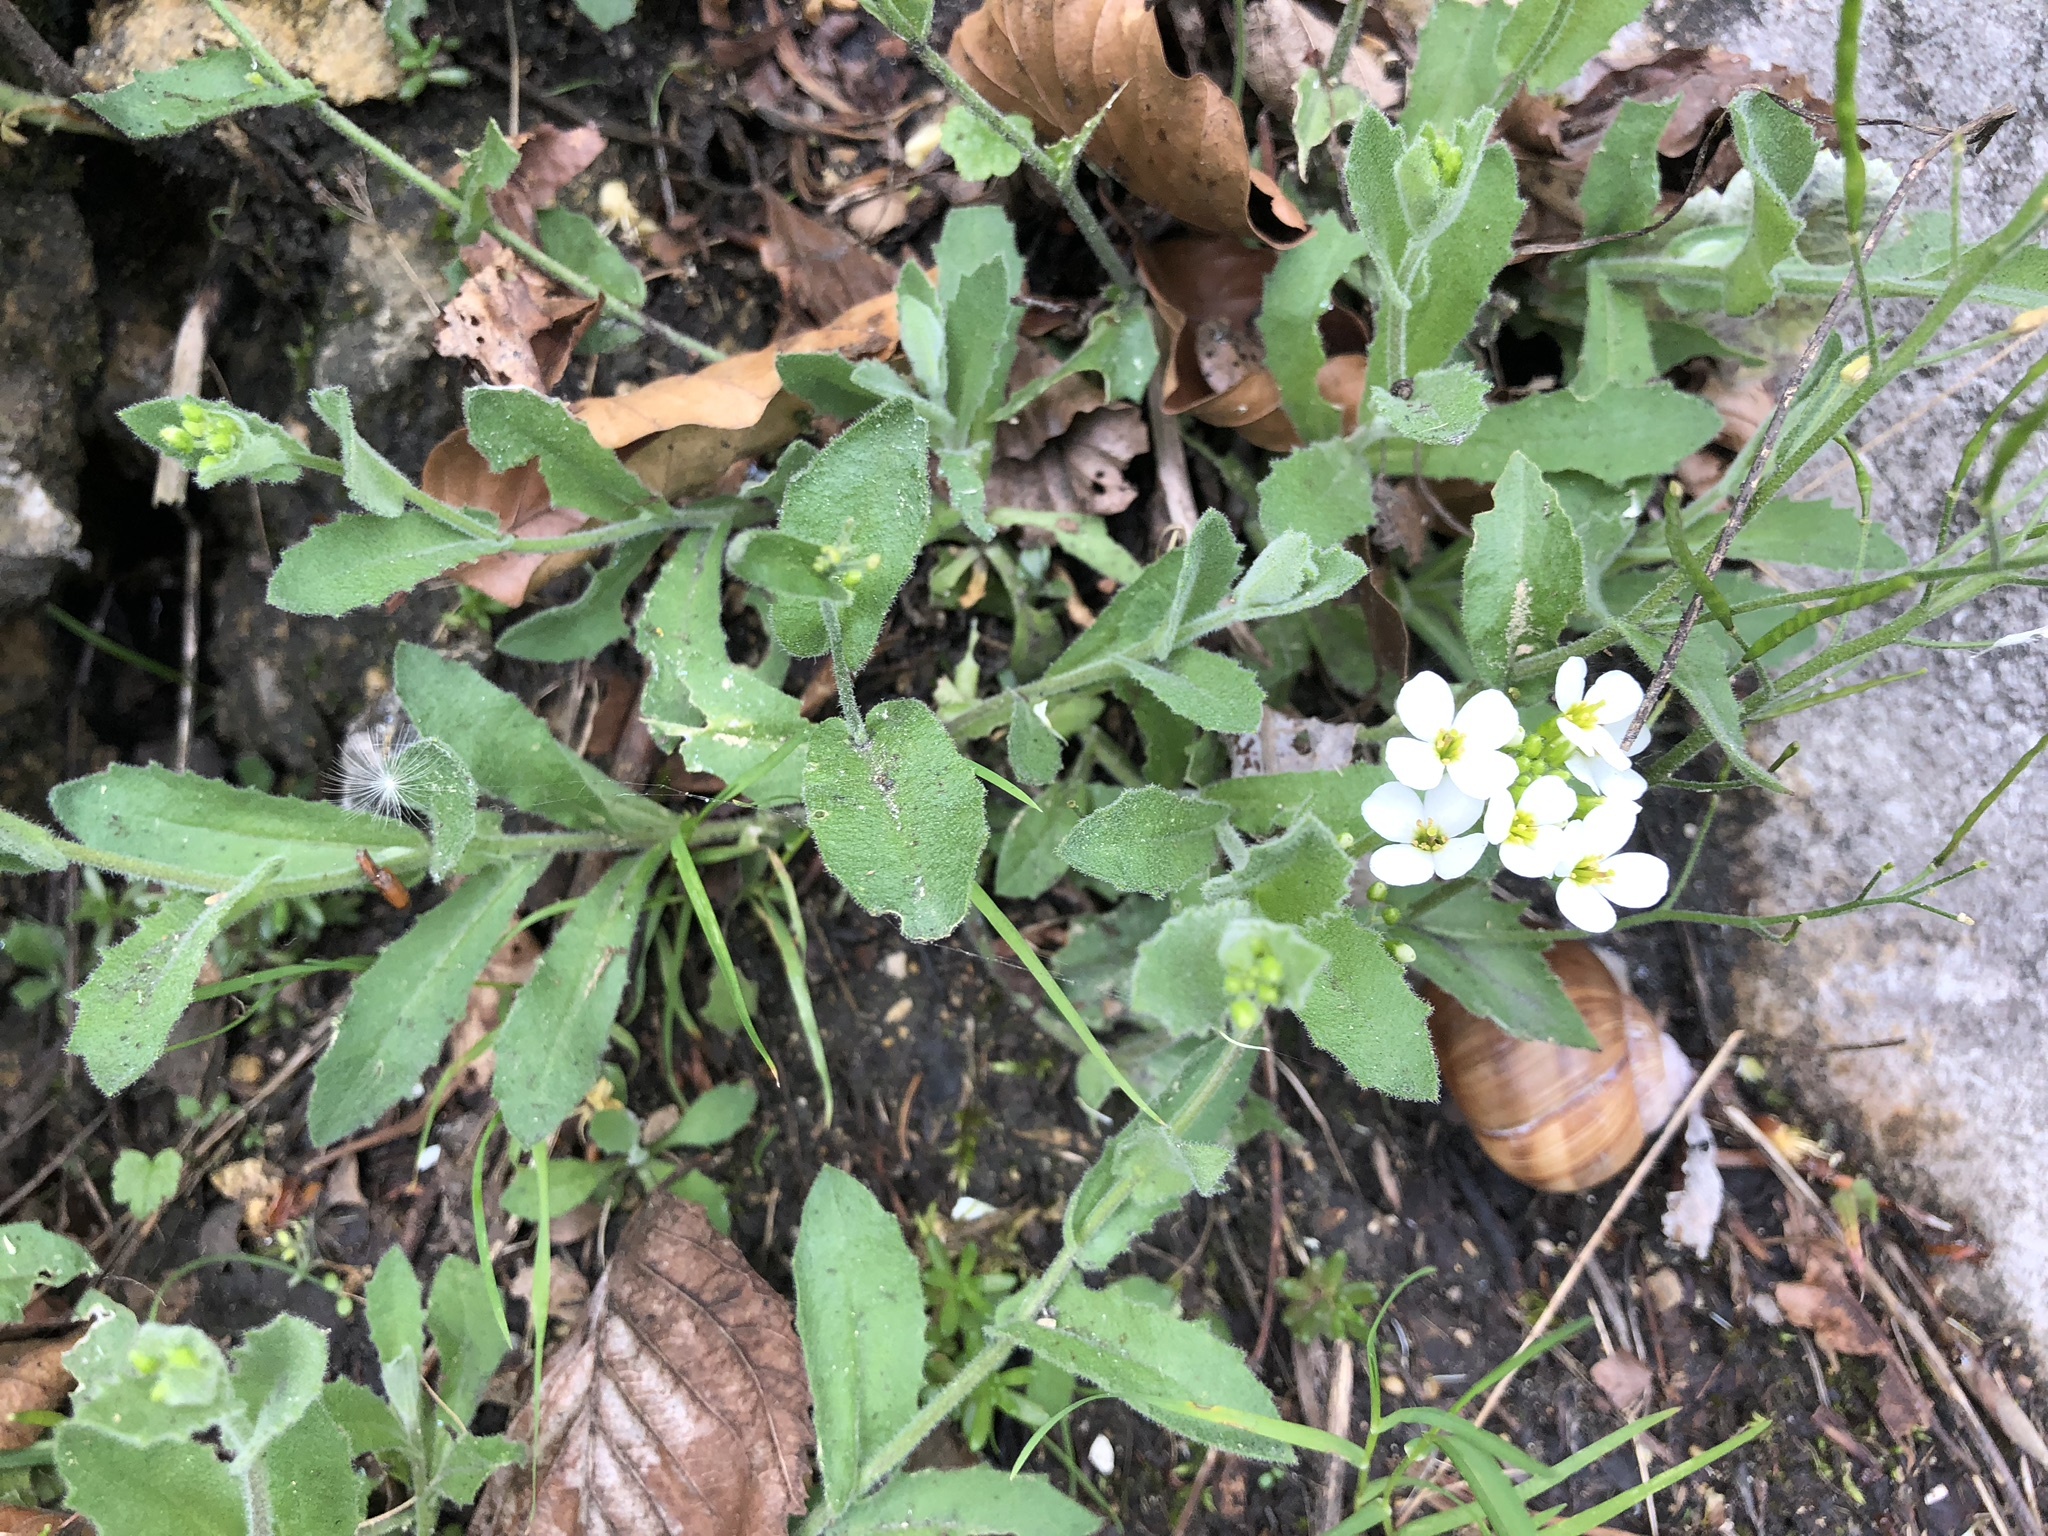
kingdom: Plantae
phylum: Tracheophyta
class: Magnoliopsida
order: Brassicales
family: Brassicaceae
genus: Arabis
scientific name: Arabis alpina
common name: Alpine rock-cress
